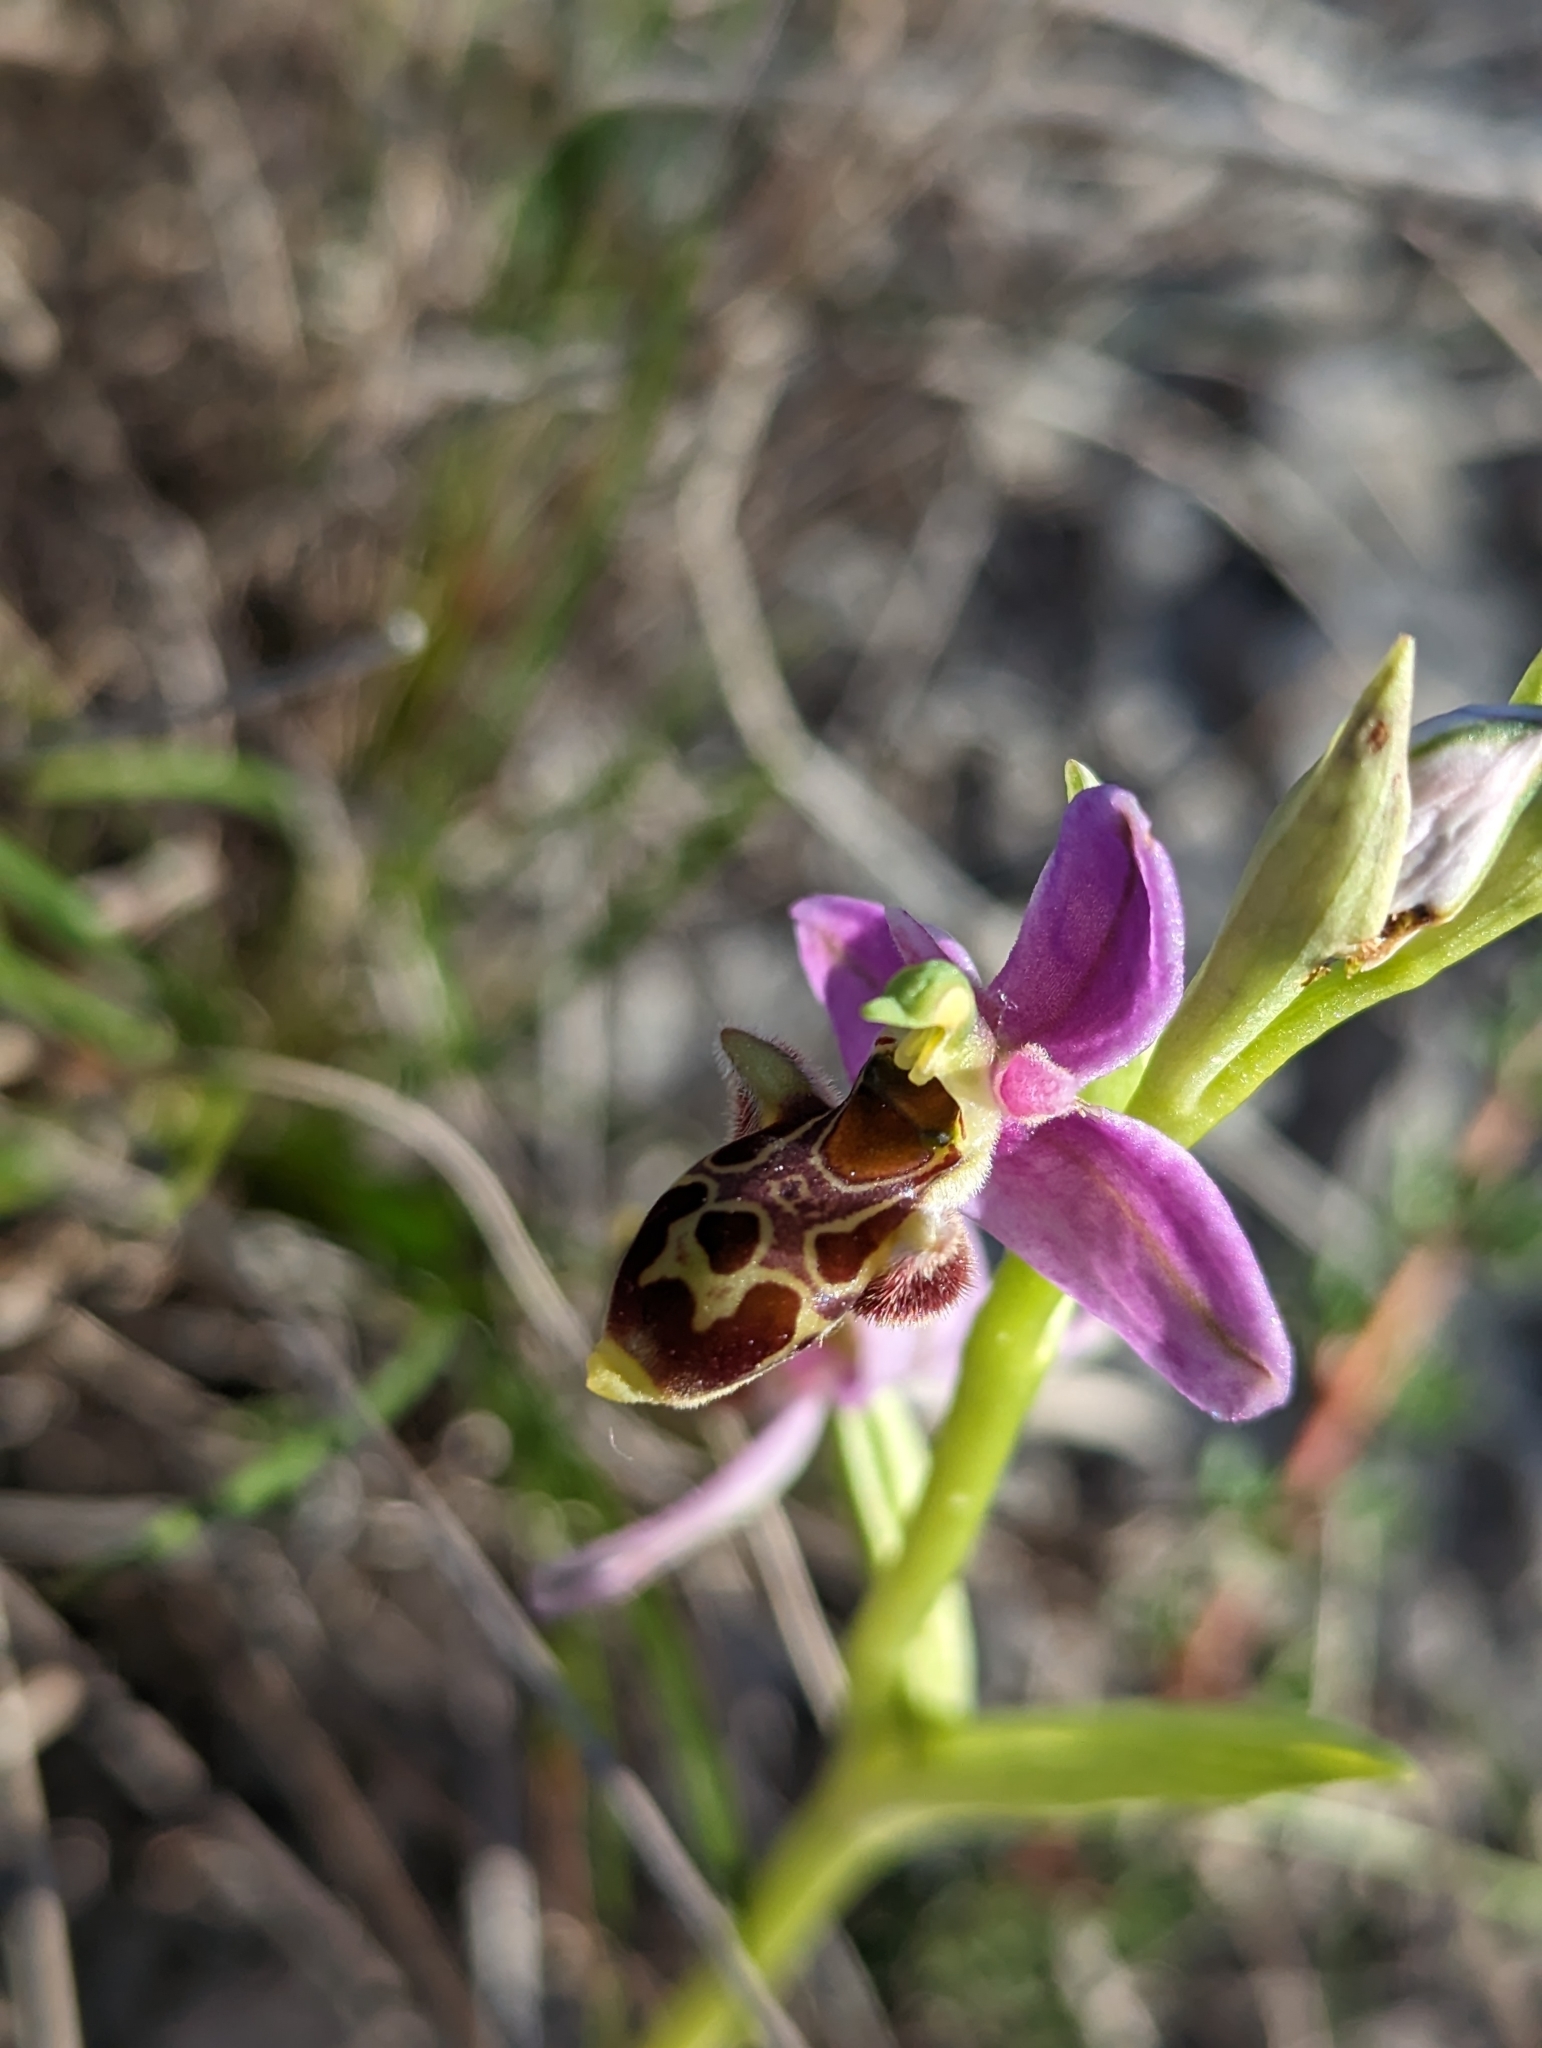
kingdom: Plantae
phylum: Tracheophyta
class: Liliopsida
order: Asparagales
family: Orchidaceae
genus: Ophrys
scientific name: Ophrys scolopax
